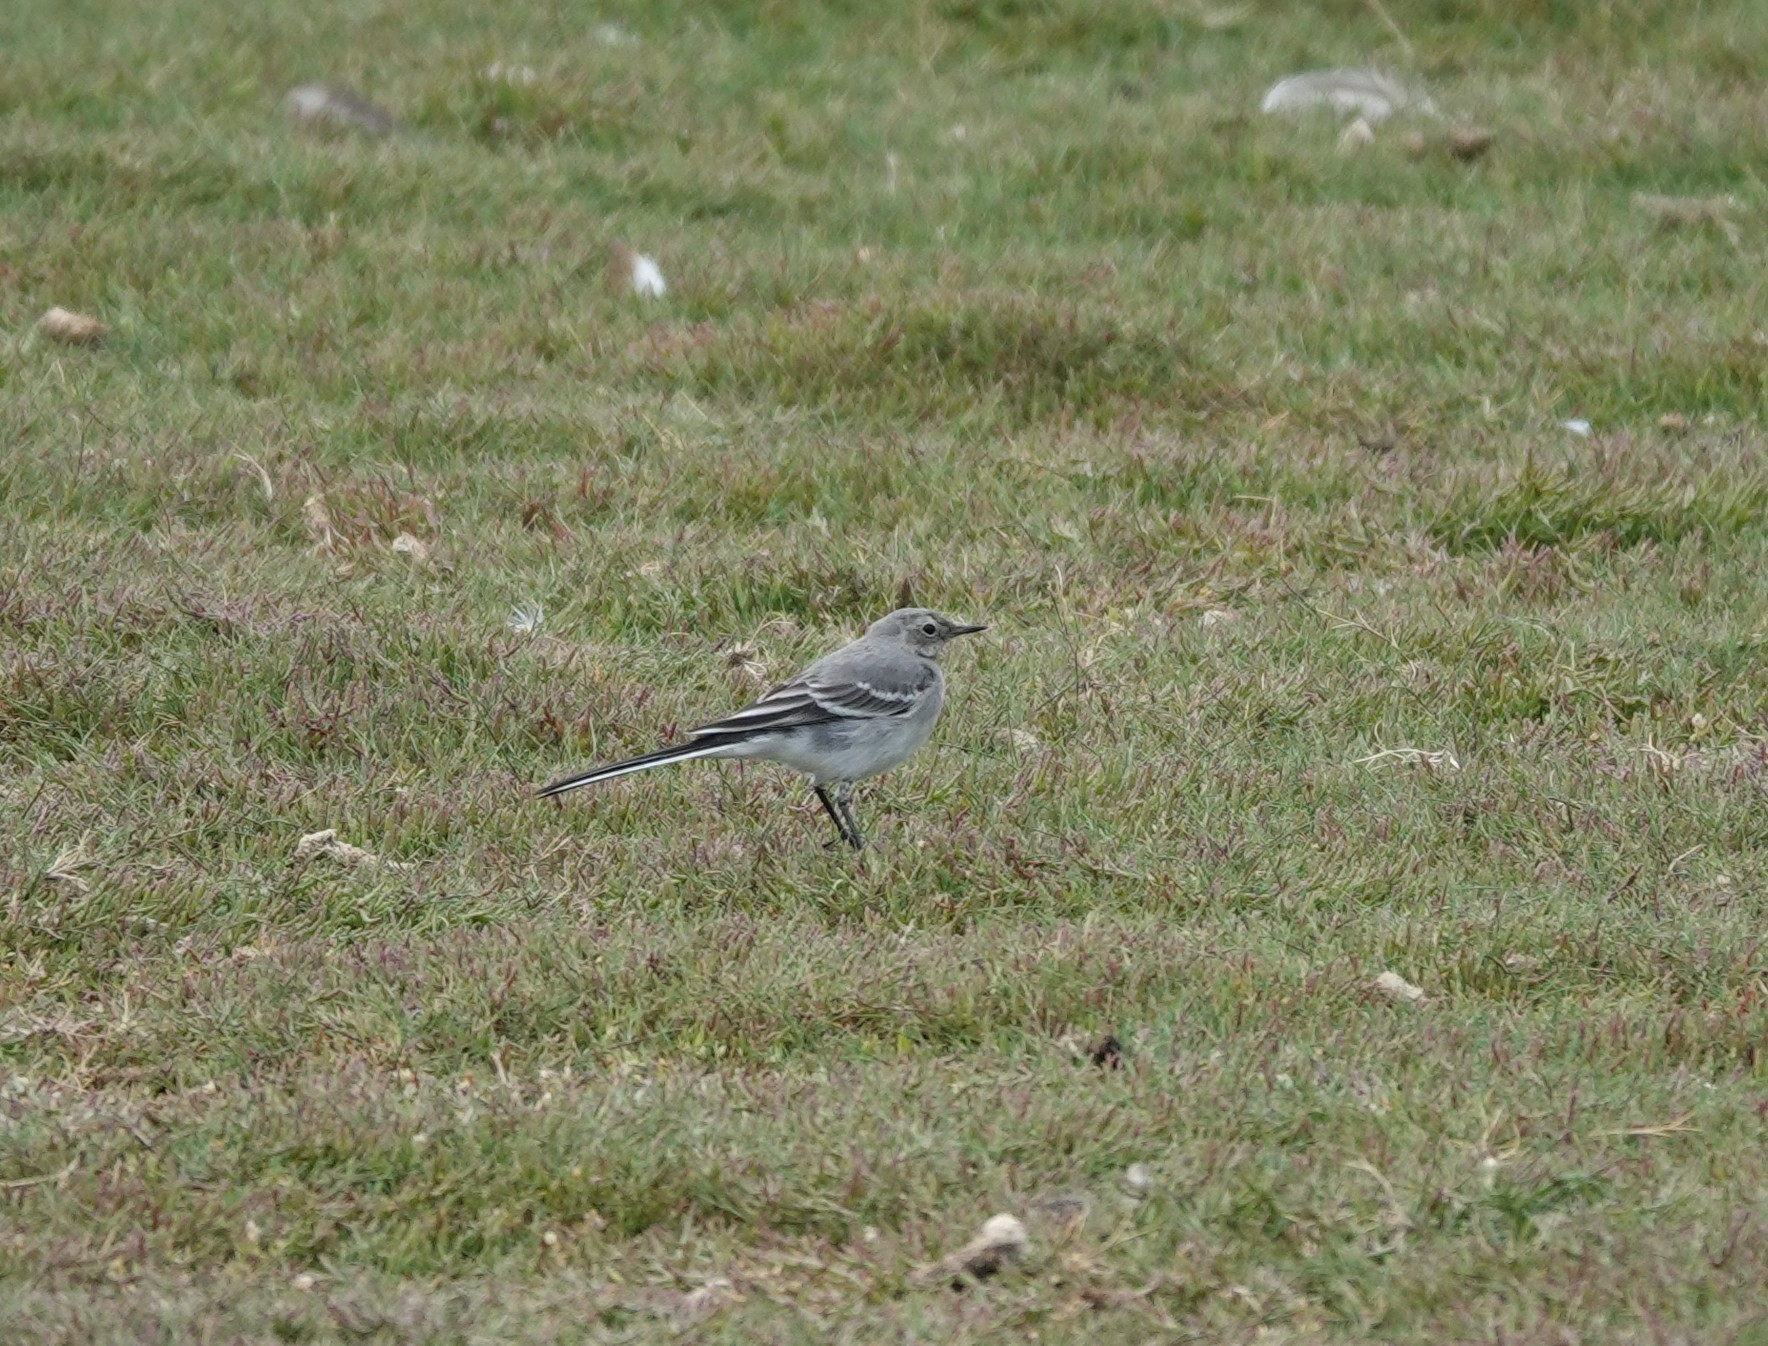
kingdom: Animalia
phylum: Chordata
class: Aves
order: Passeriformes
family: Motacillidae
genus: Motacilla
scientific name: Motacilla alba
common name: White wagtail
